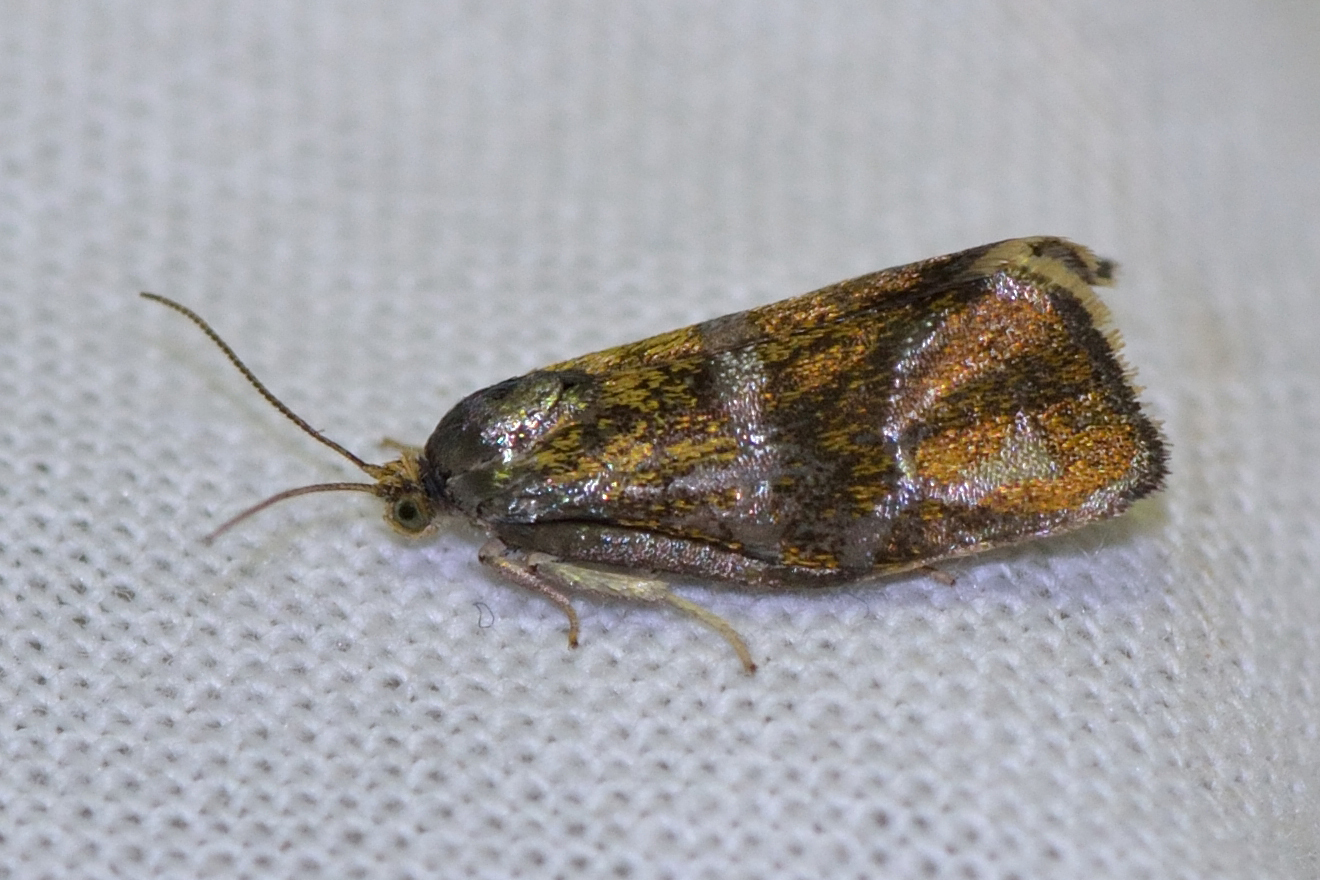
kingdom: Animalia
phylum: Arthropoda
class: Insecta
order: Lepidoptera
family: Tortricidae
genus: Ptycholoma
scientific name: Ptycholoma lecheana
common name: Leches twist moth
